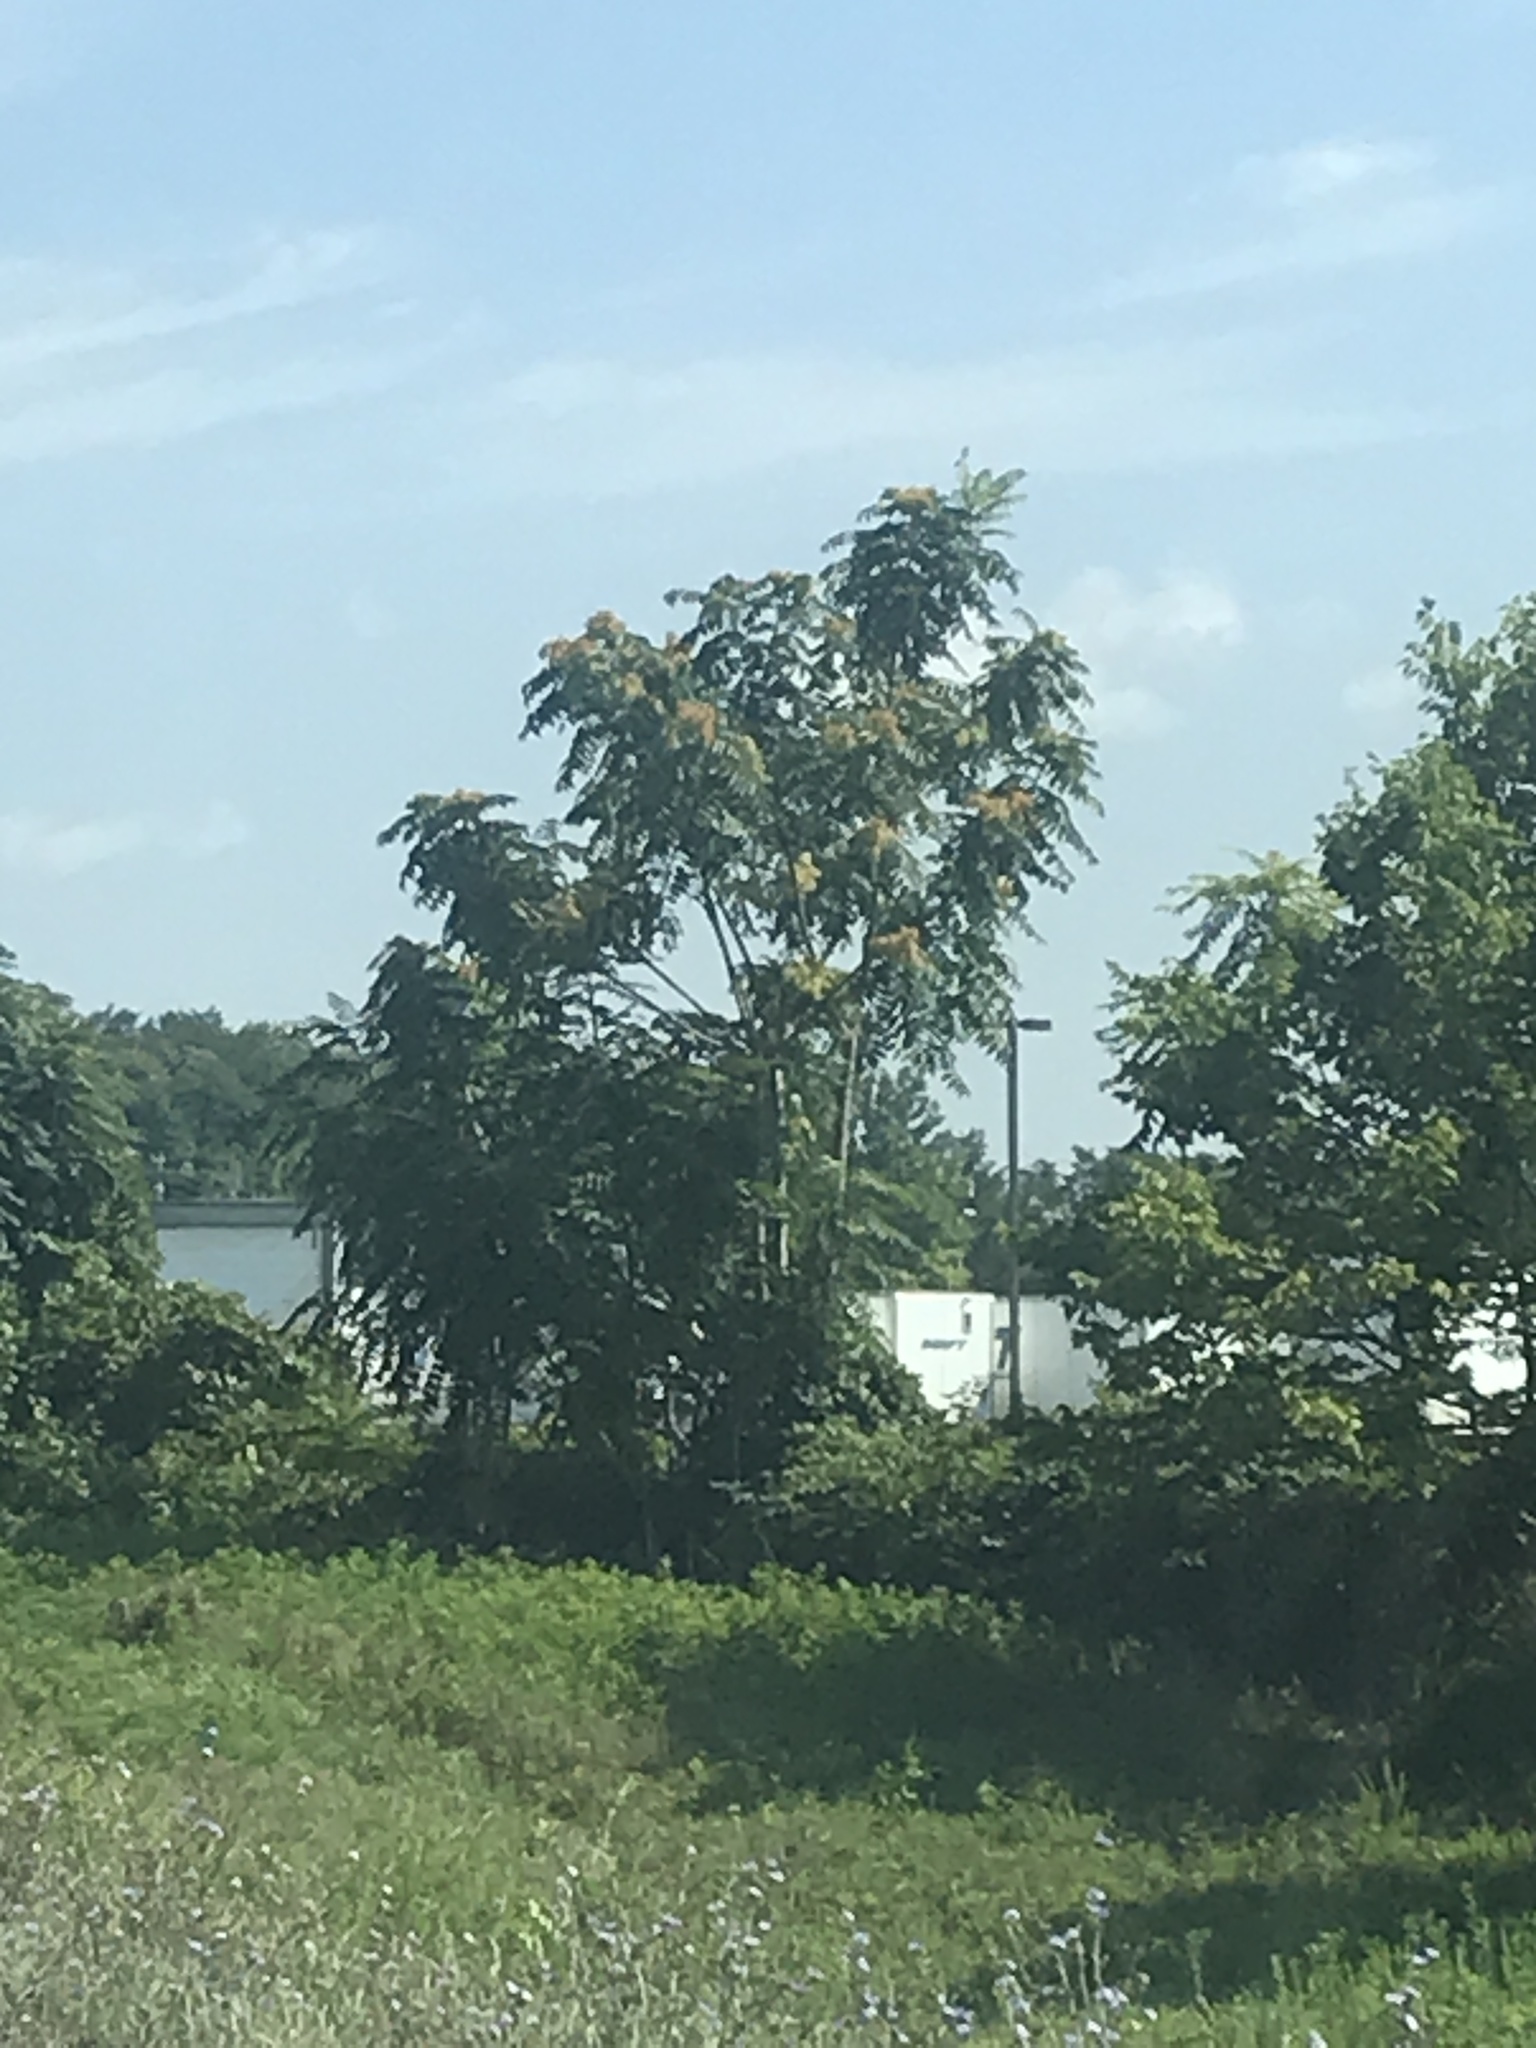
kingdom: Plantae
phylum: Tracheophyta
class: Magnoliopsida
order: Sapindales
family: Simaroubaceae
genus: Ailanthus
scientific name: Ailanthus altissima
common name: Tree-of-heaven
